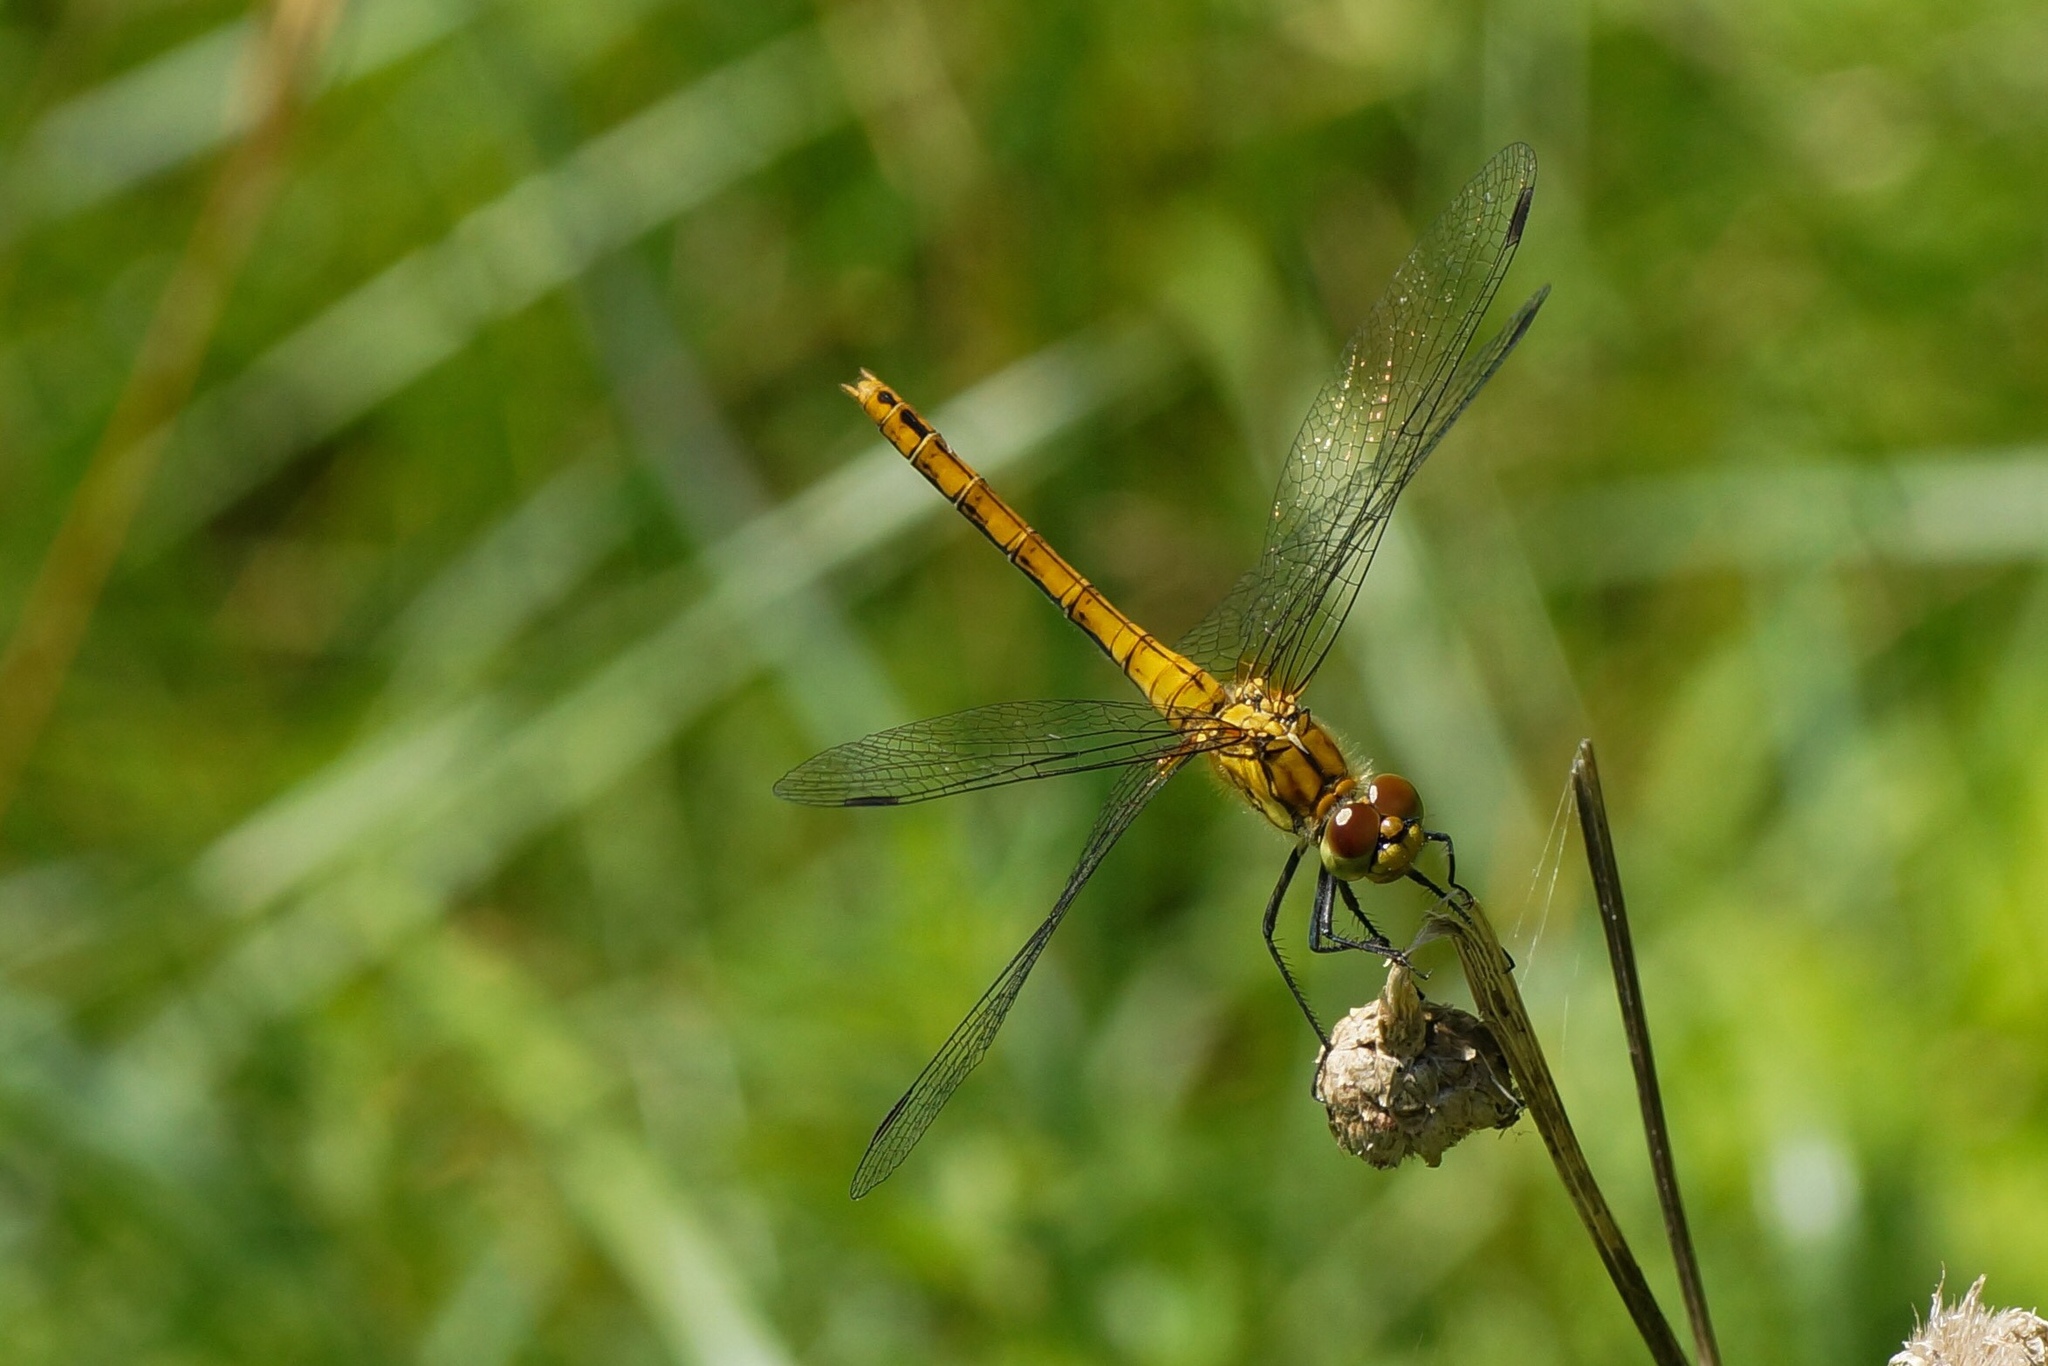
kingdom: Animalia
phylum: Arthropoda
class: Insecta
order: Odonata
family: Libellulidae
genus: Sympetrum
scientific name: Sympetrum sanguineum
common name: Ruddy darter
